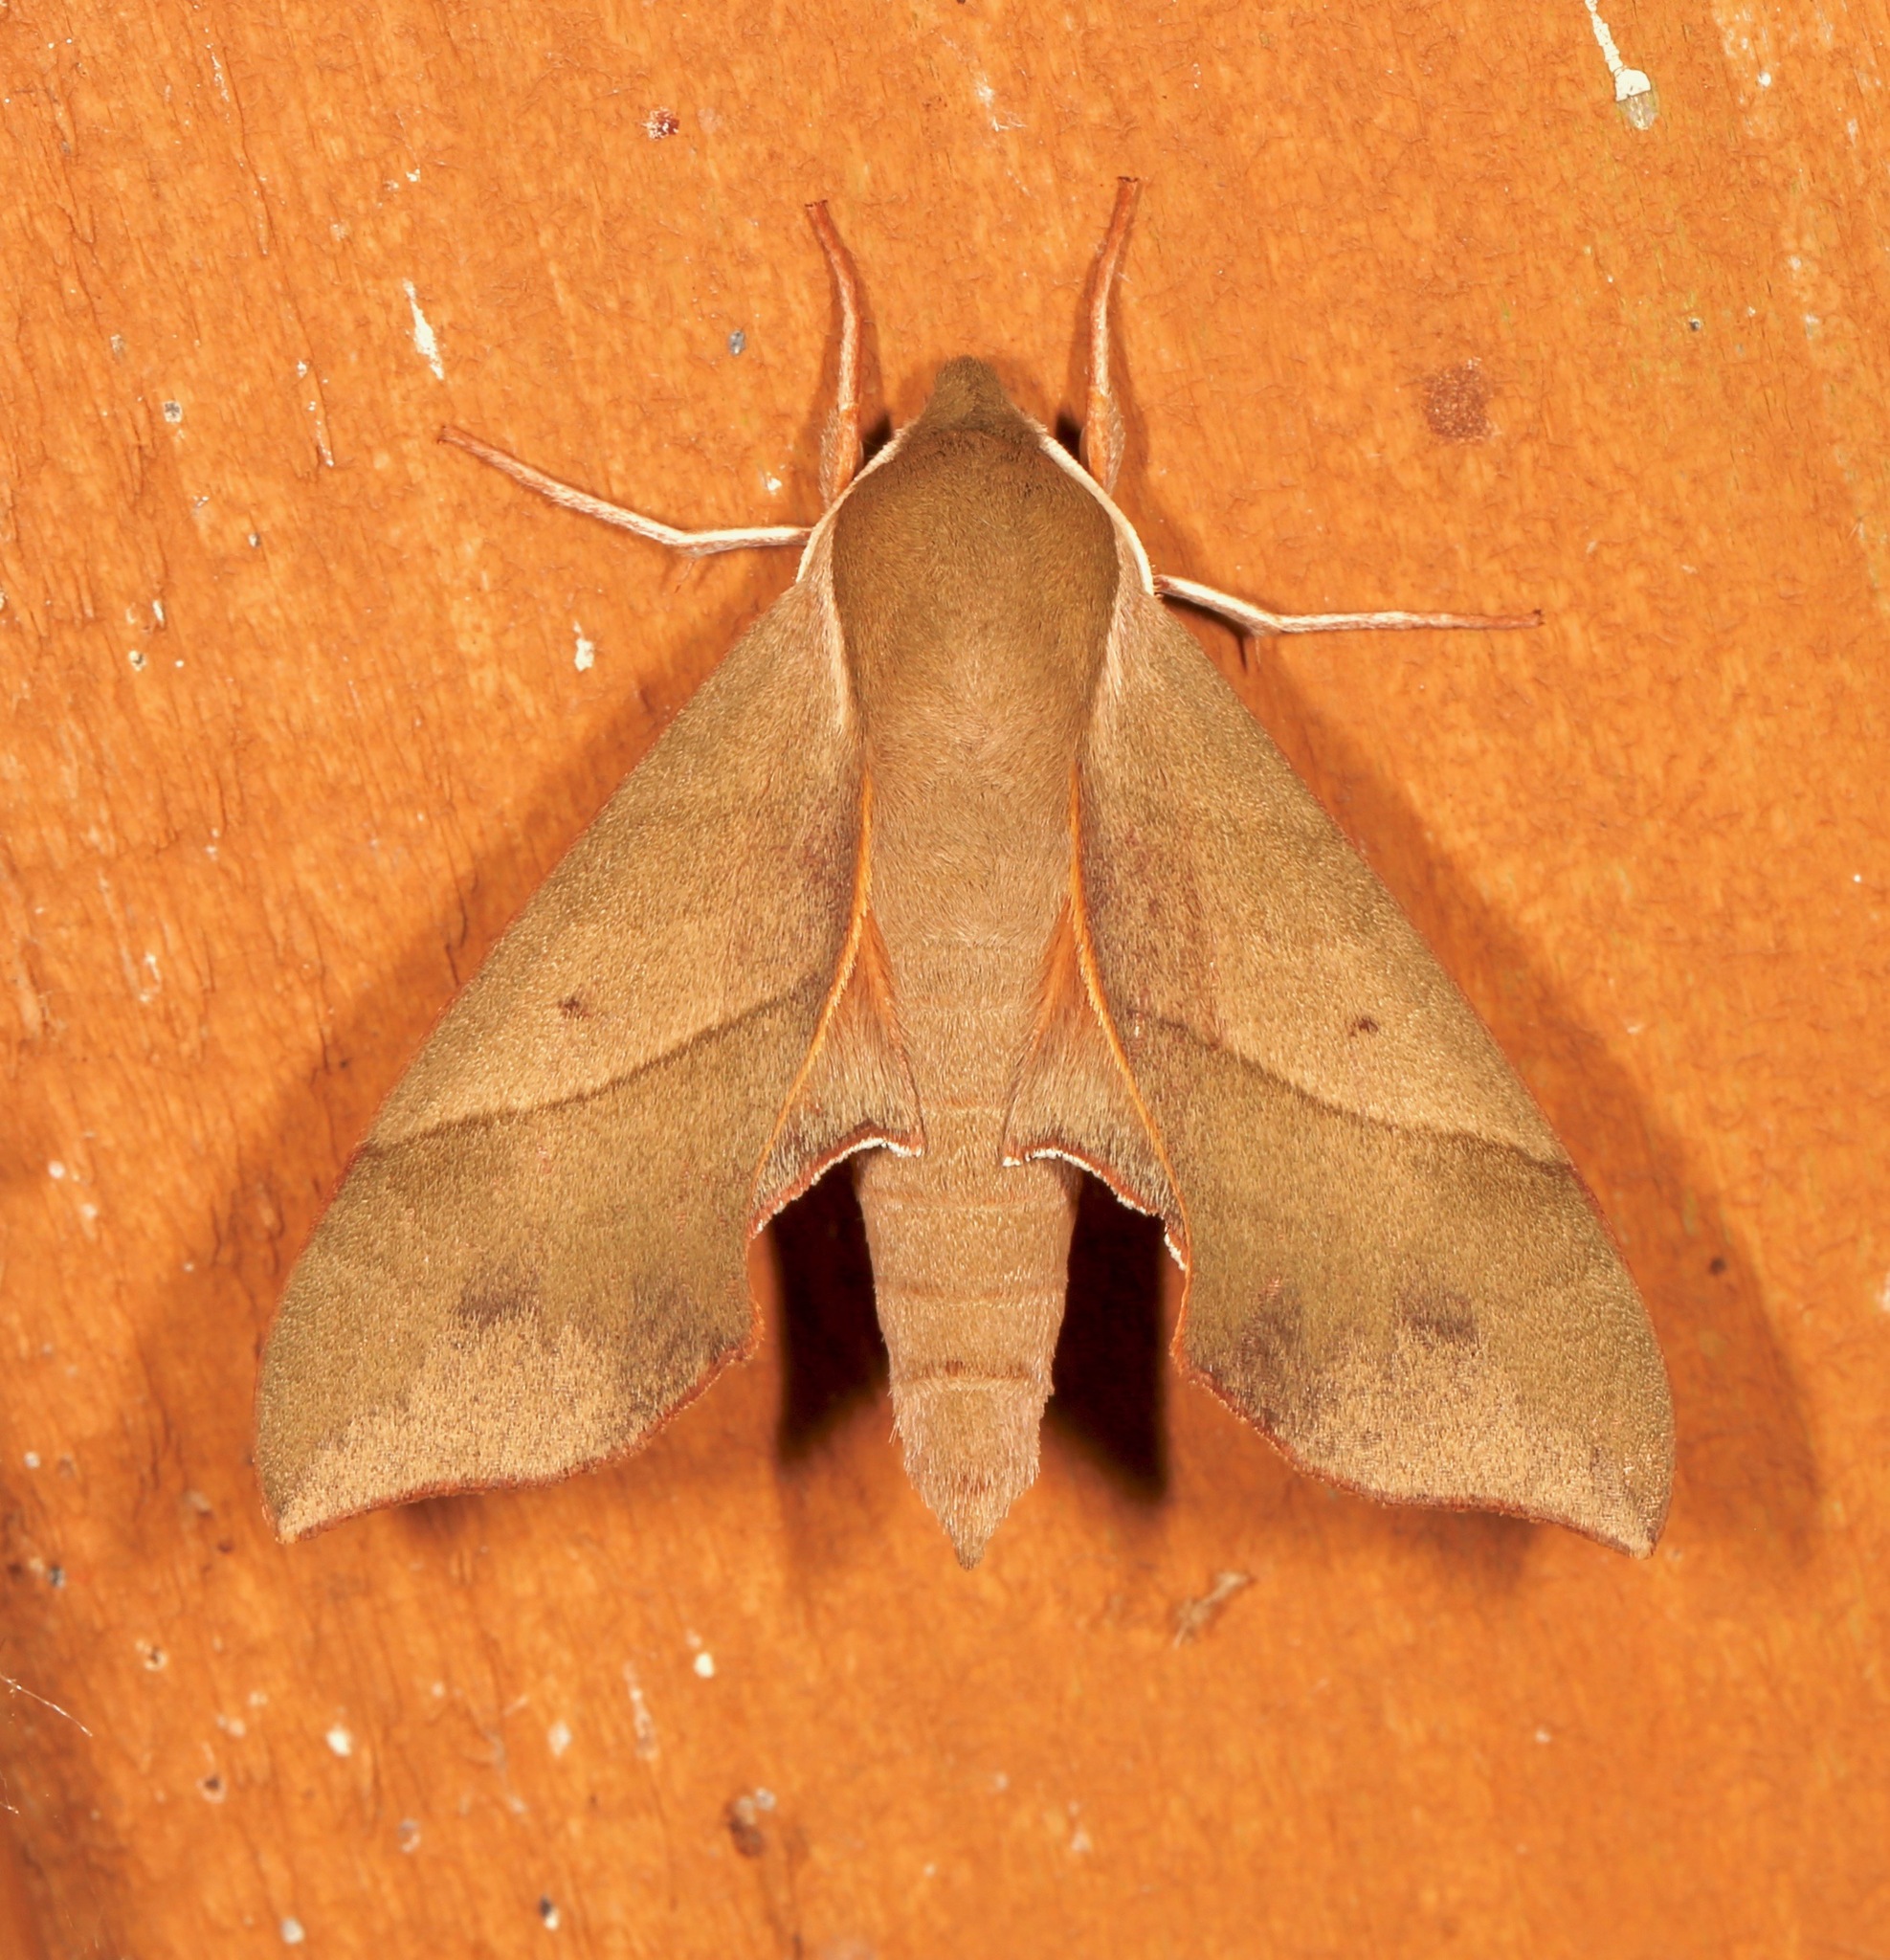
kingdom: Animalia
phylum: Arthropoda
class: Insecta
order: Lepidoptera
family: Sphingidae
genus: Darapsa
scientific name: Darapsa myron
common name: Hog sphinx
